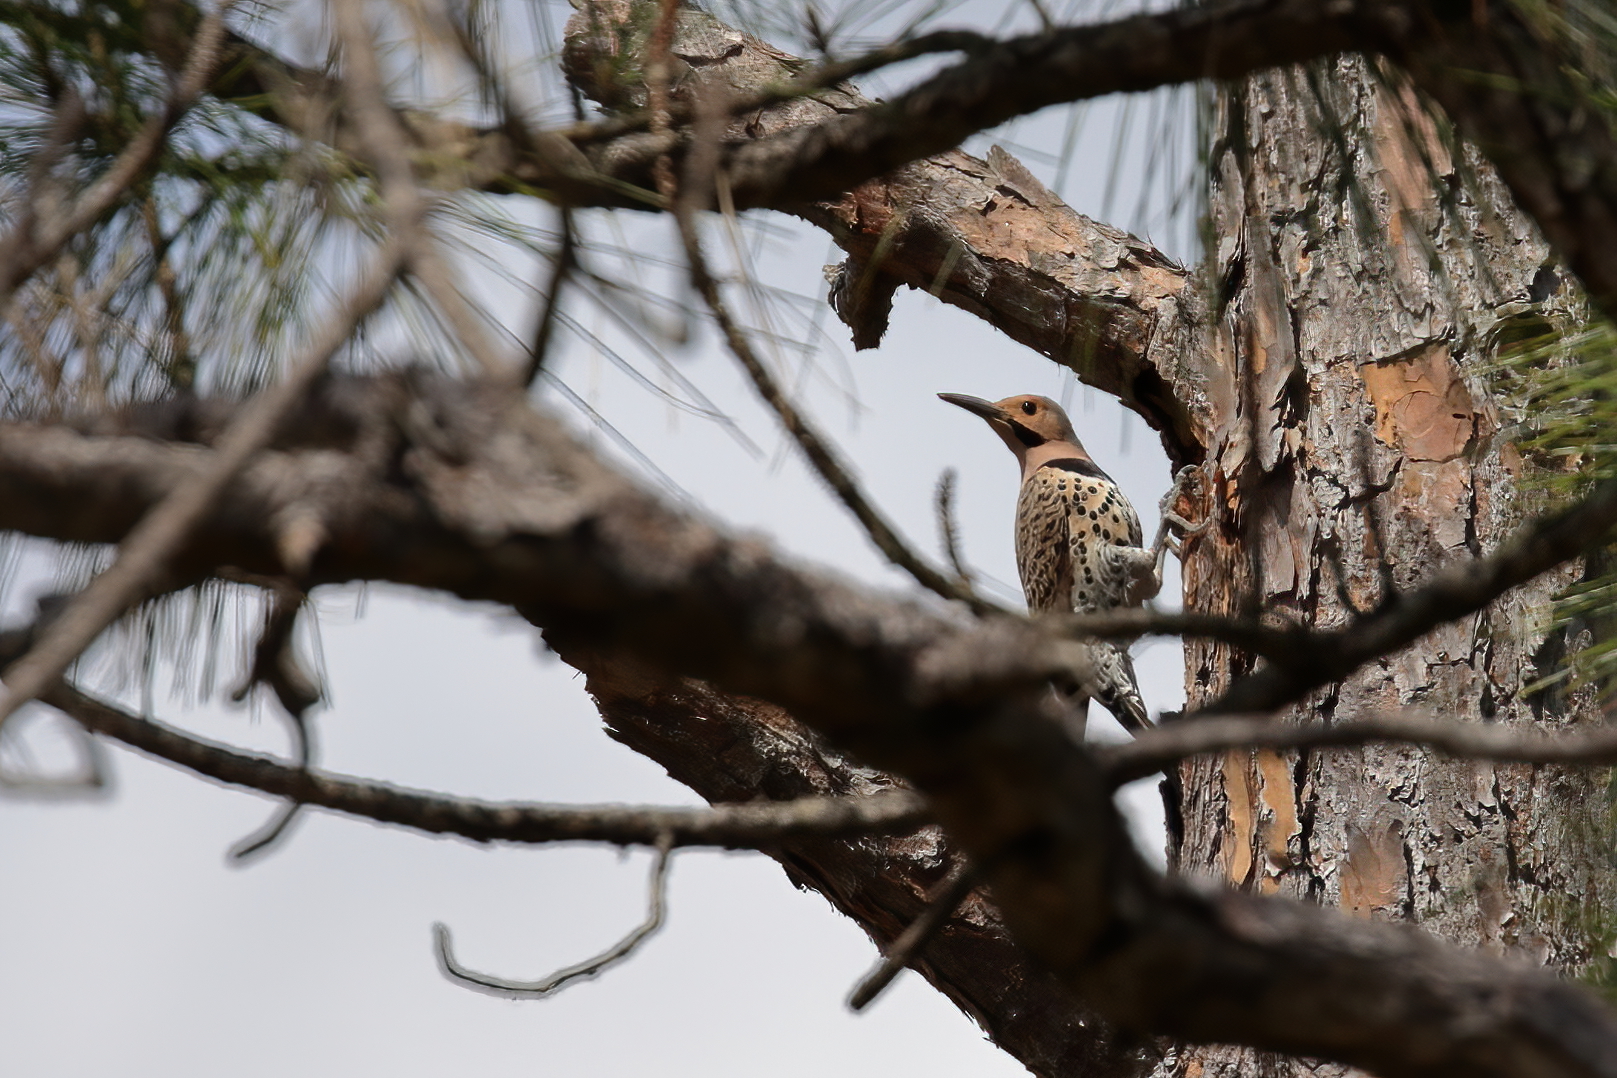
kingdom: Animalia
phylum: Chordata
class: Aves
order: Piciformes
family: Picidae
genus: Colaptes
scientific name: Colaptes auratus
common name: Northern flicker
